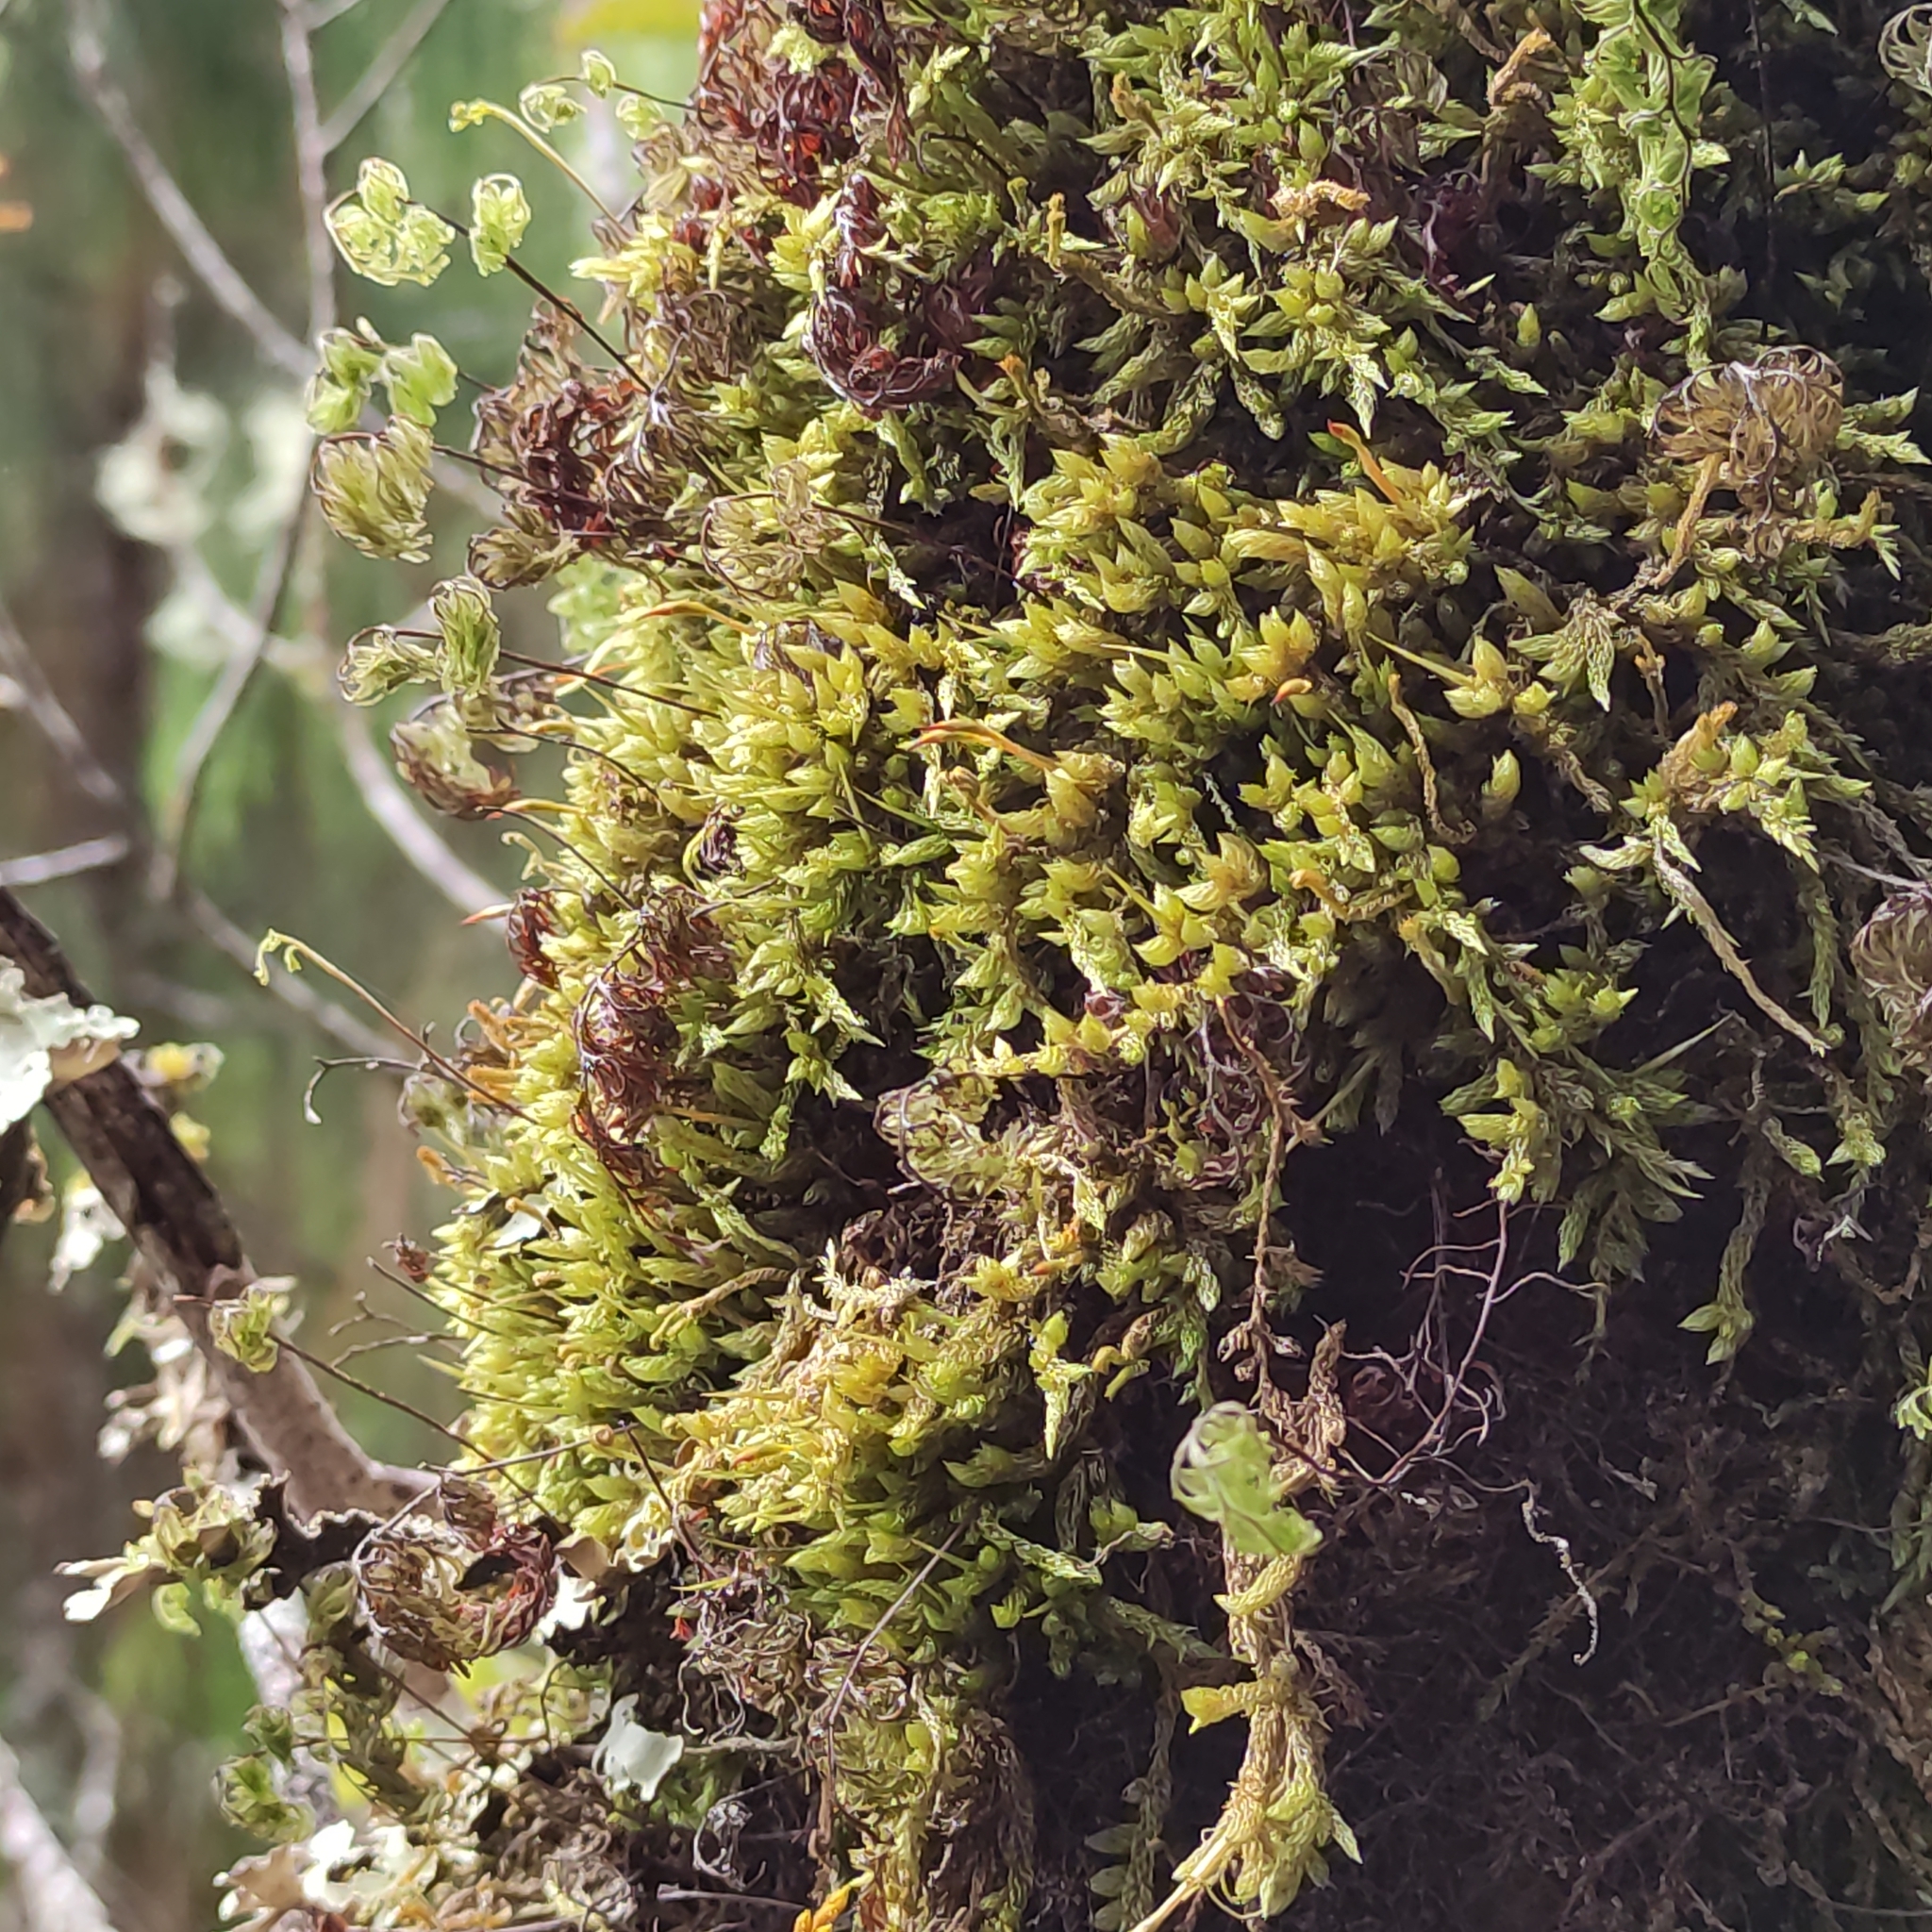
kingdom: Plantae
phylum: Bryophyta
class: Bryopsida
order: Dicranales
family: Dicranaceae
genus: Dicnemon
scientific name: Dicnemon calycinum
